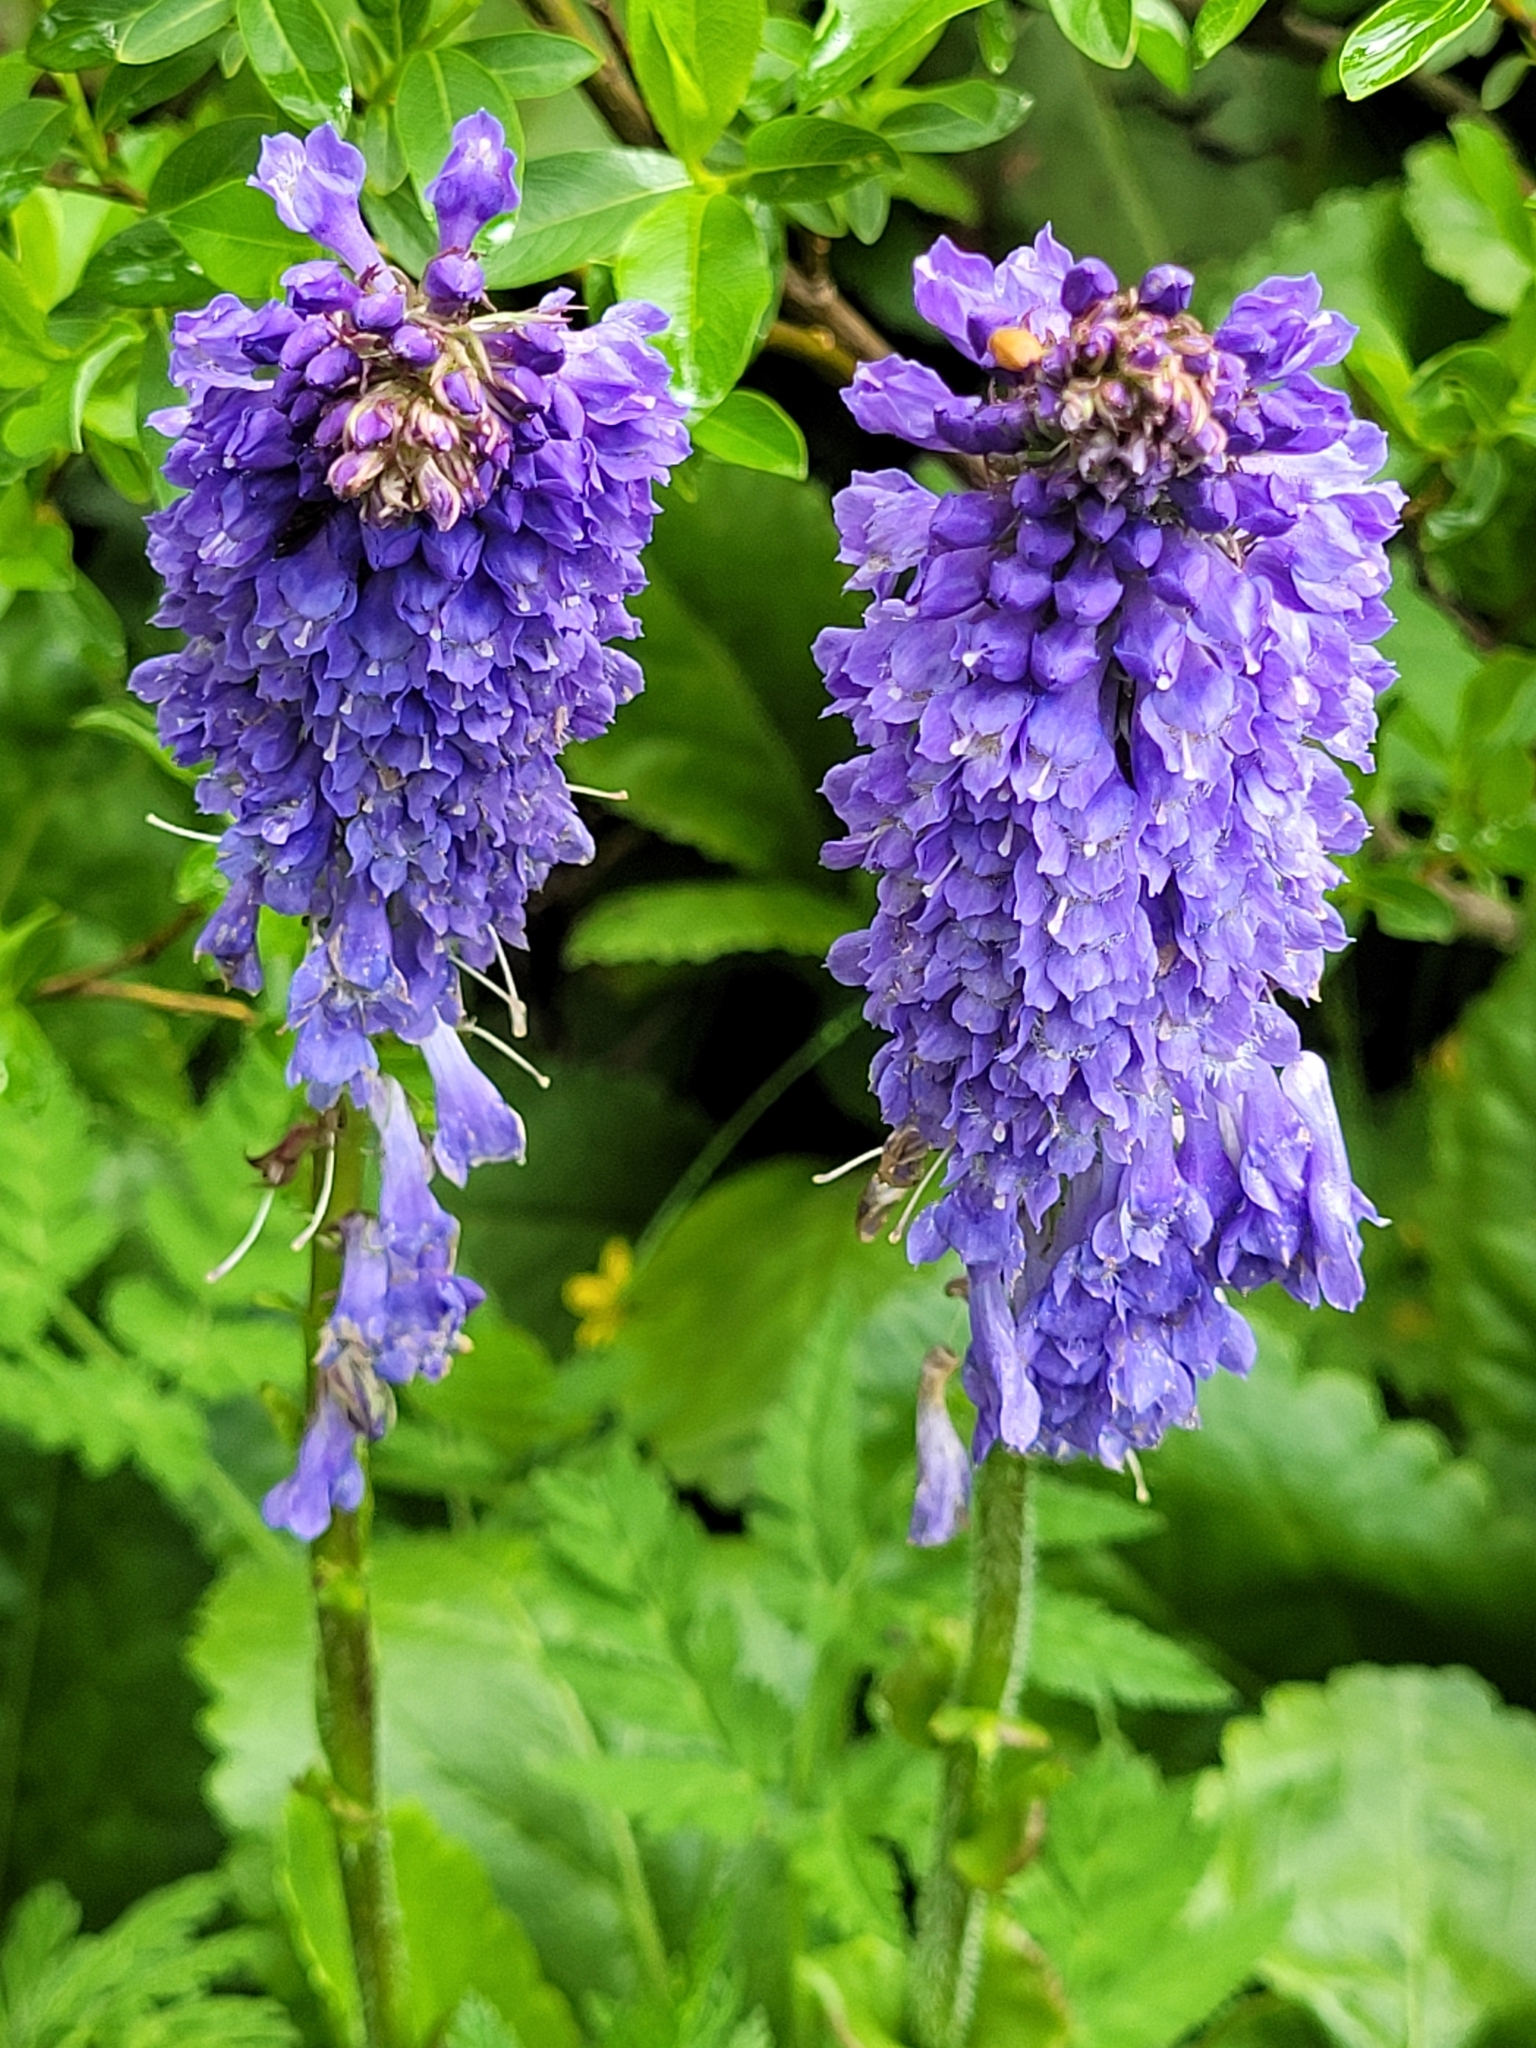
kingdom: Plantae
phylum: Tracheophyta
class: Magnoliopsida
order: Lamiales
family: Plantaginaceae
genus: Wulfenia
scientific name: Wulfenia carinthiaca
